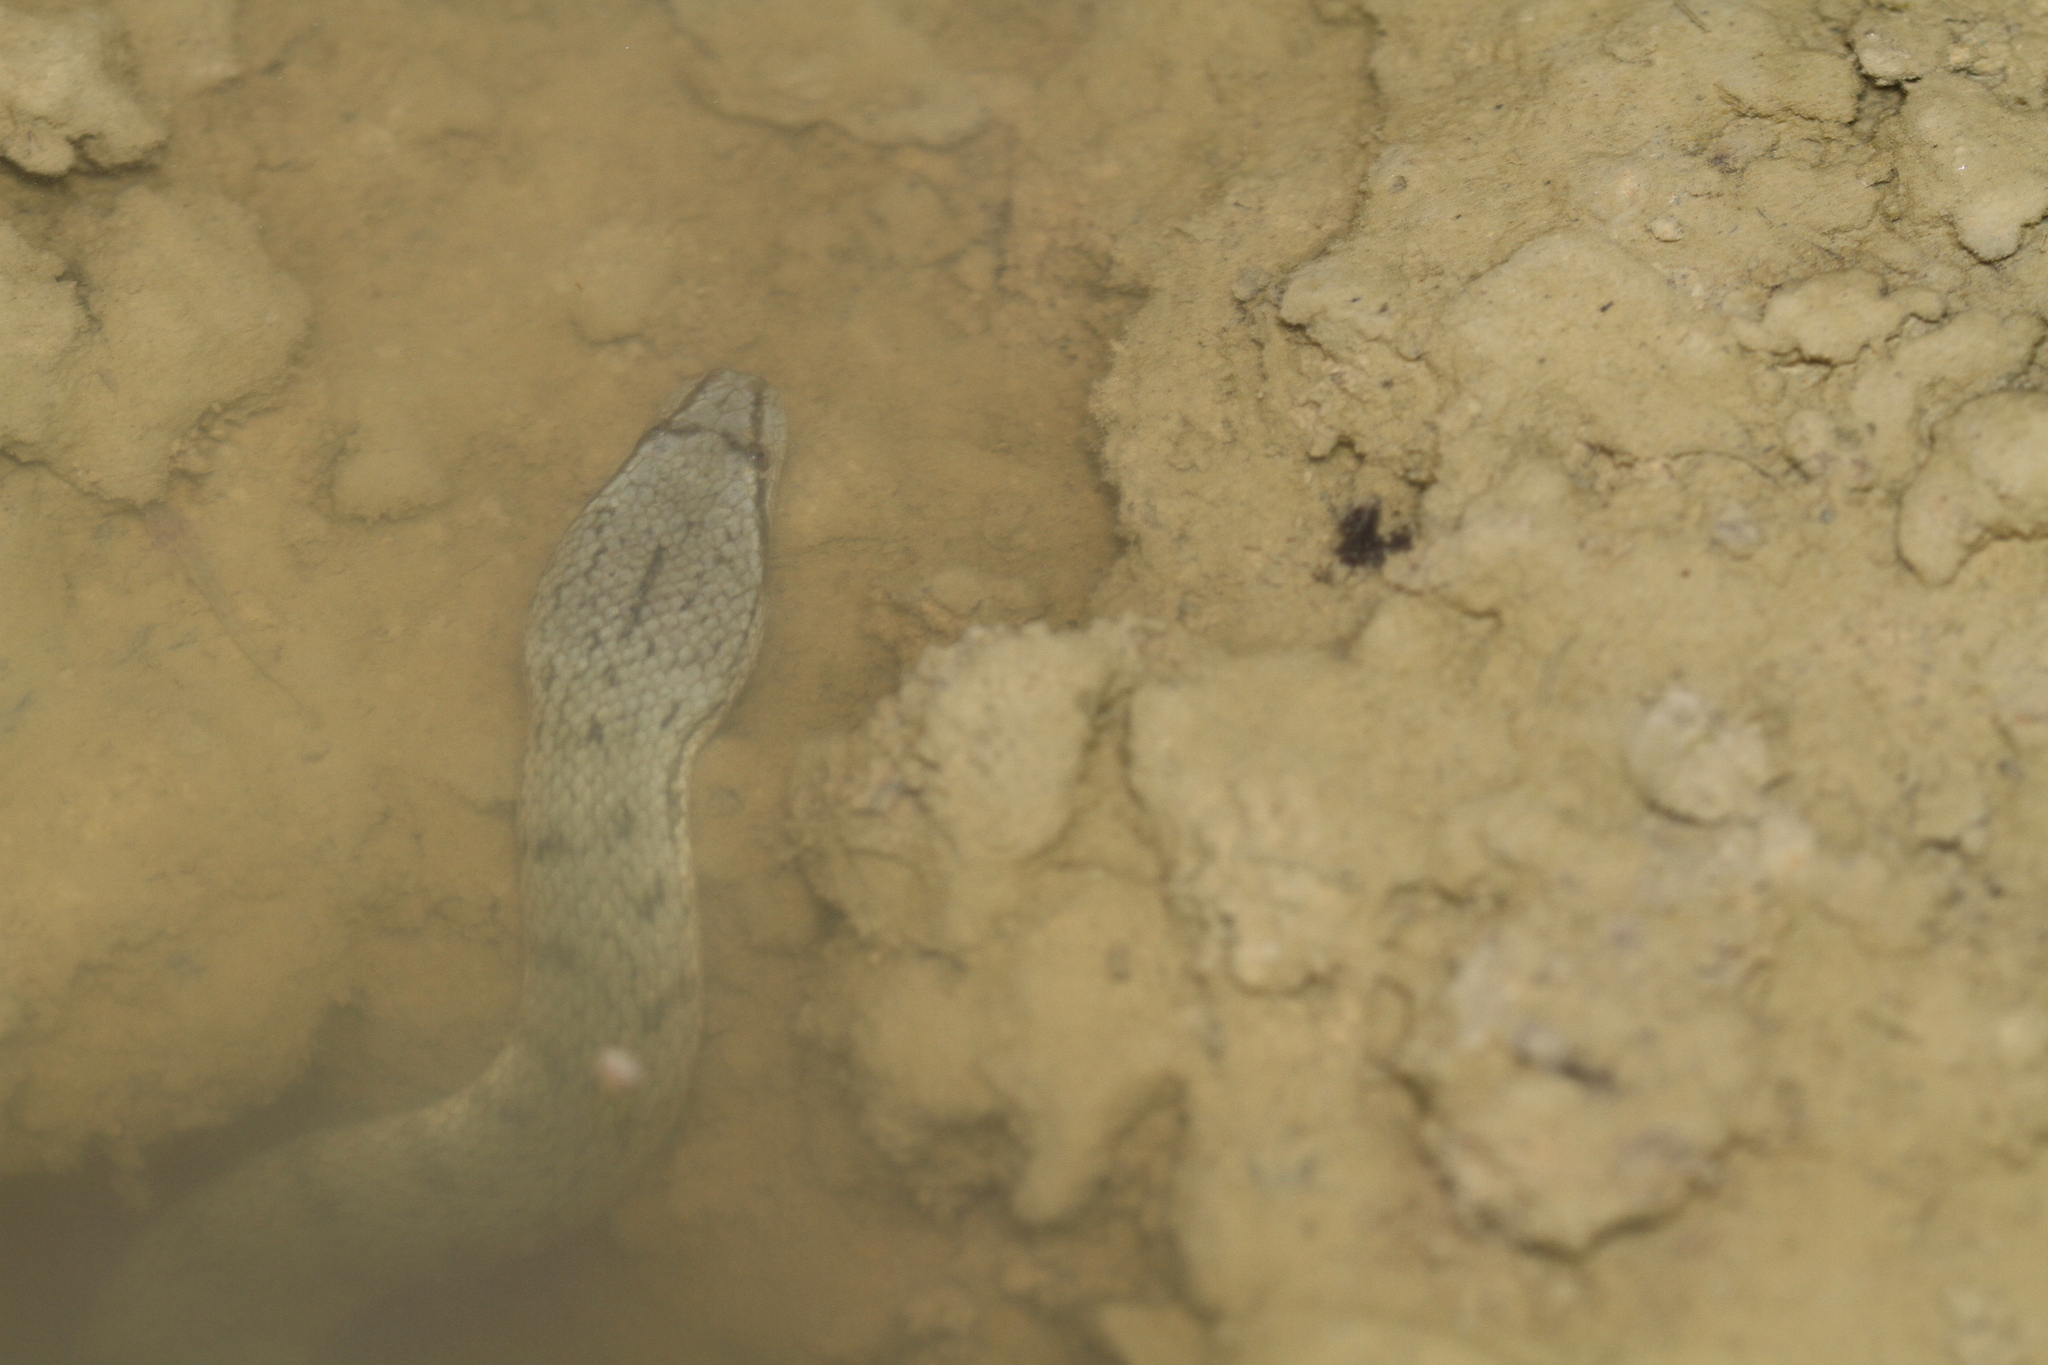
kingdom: Animalia
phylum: Chordata
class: Squamata
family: Homalopsidae
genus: Cerberus
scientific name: Cerberus schneiderii
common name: Southeast asian bockadam
